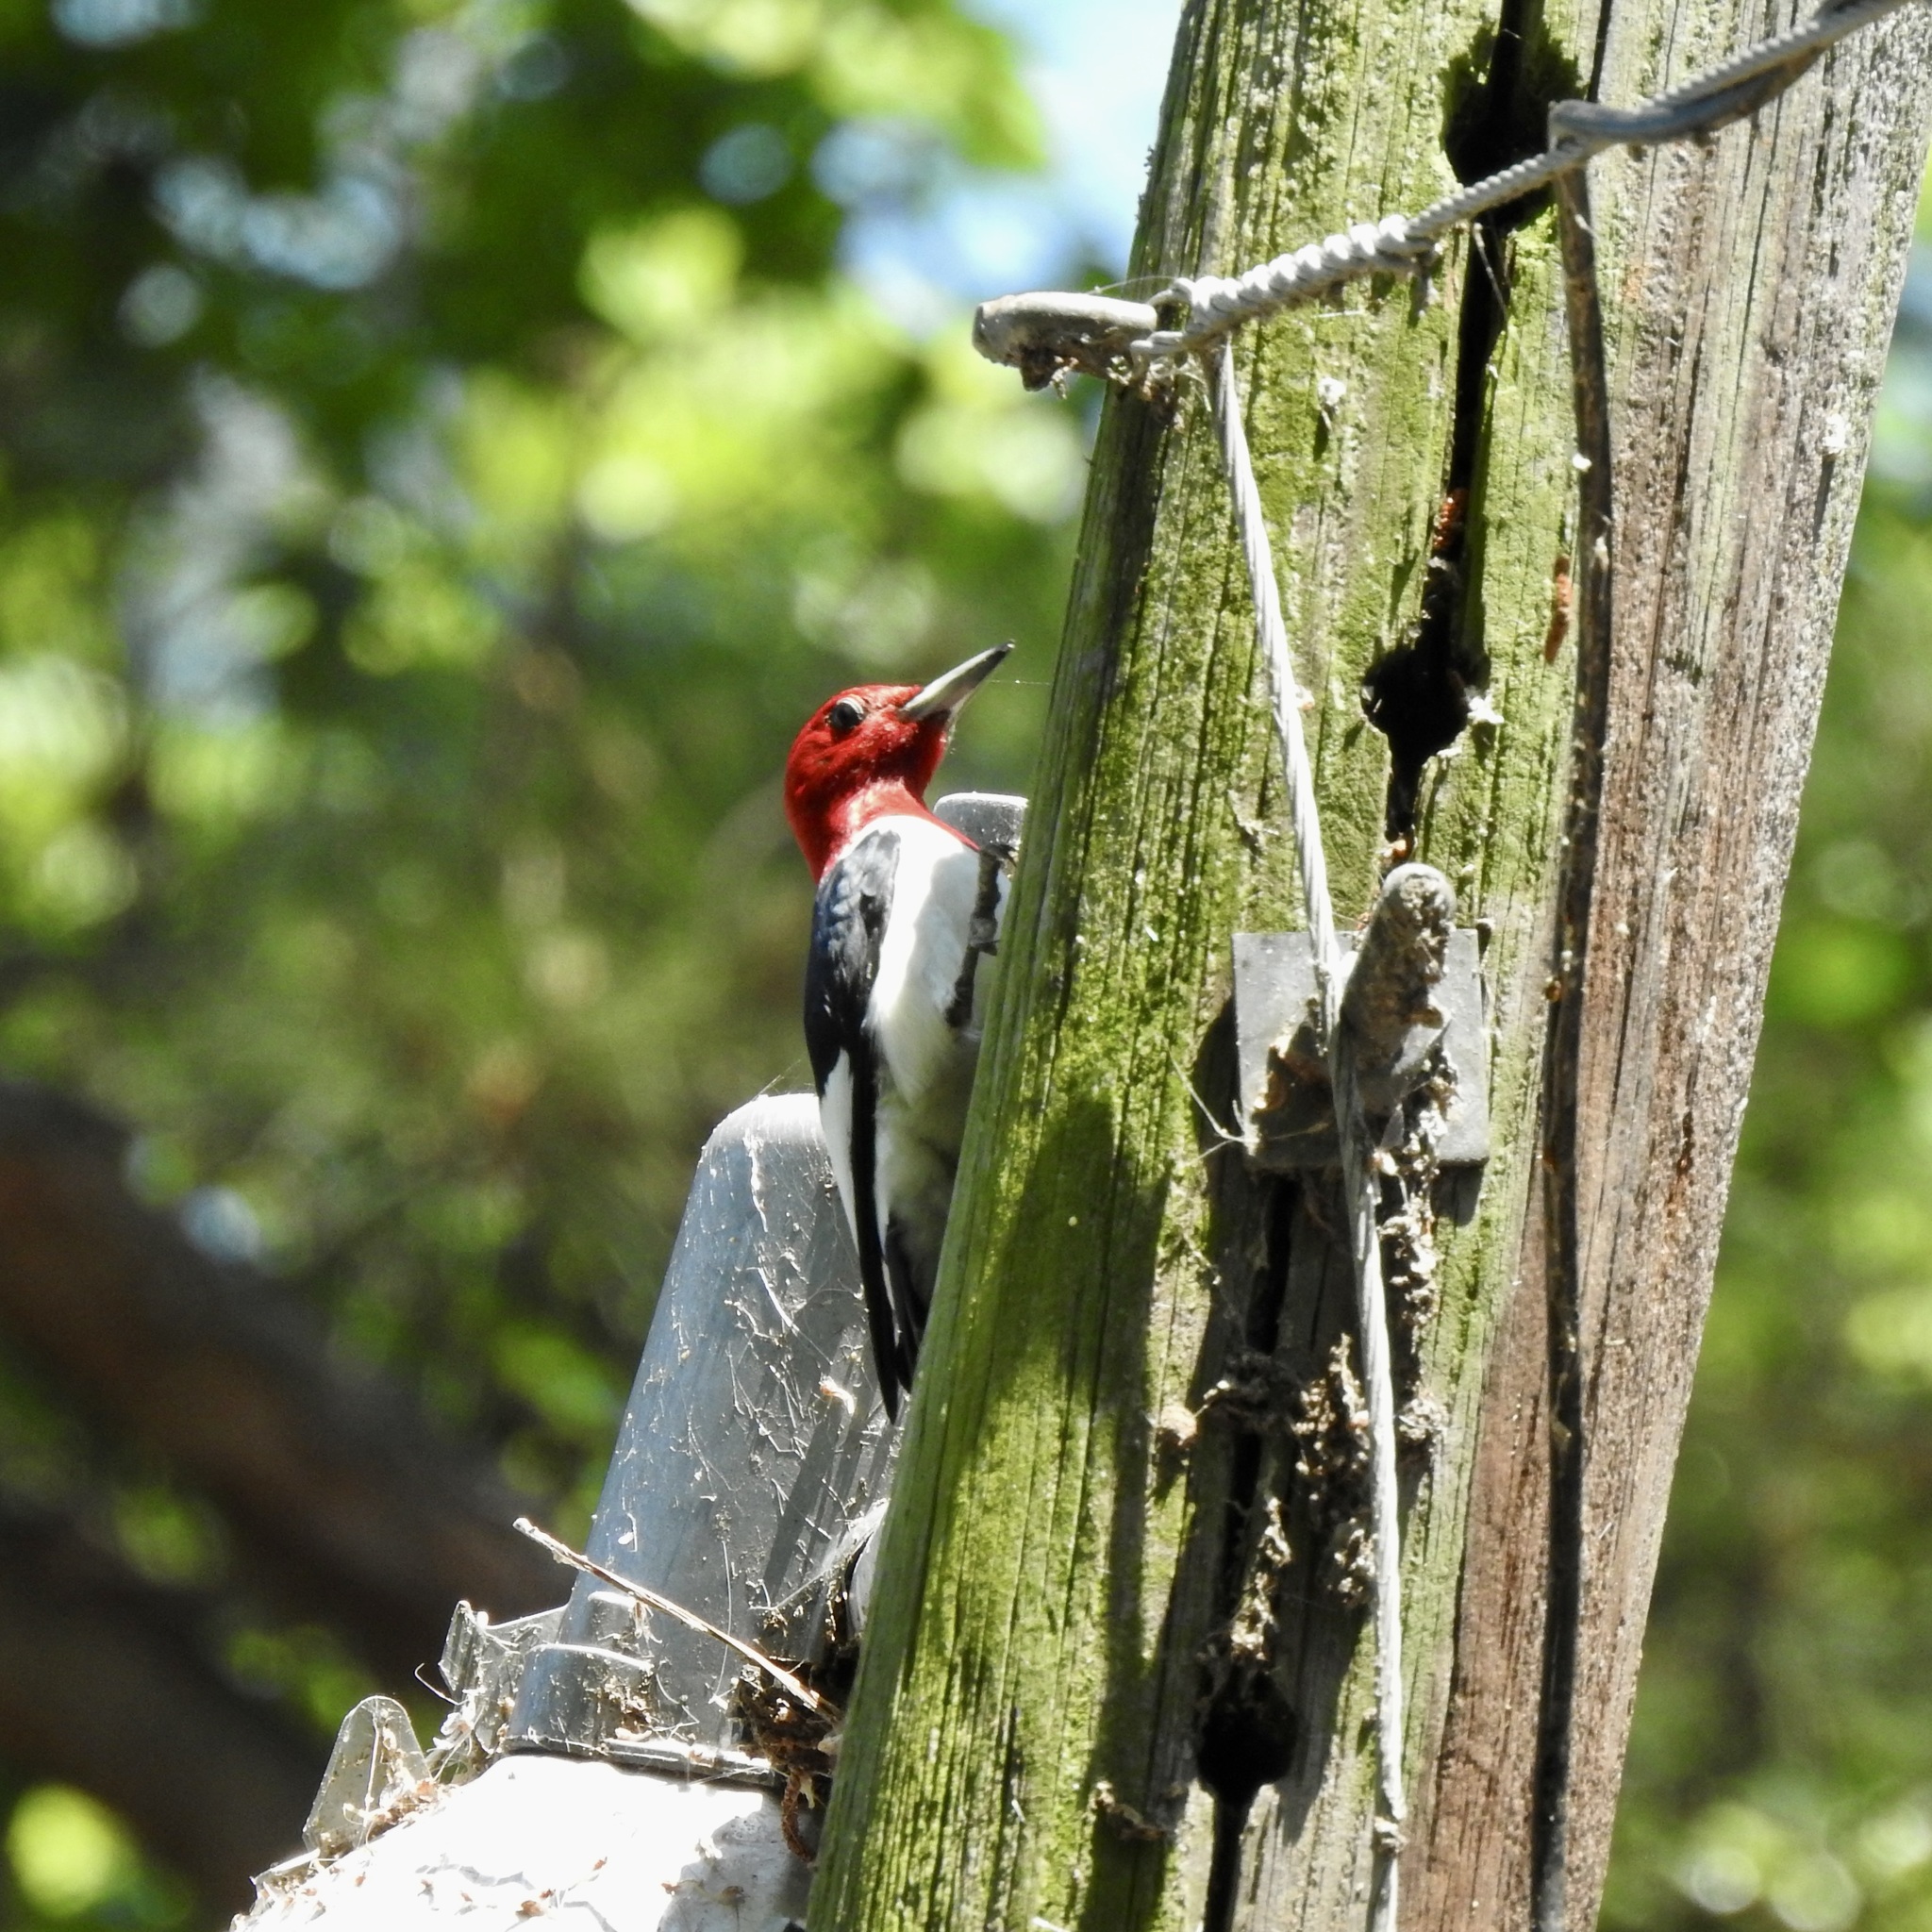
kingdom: Animalia
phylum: Chordata
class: Aves
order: Piciformes
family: Picidae
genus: Melanerpes
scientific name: Melanerpes erythrocephalus
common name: Red-headed woodpecker
